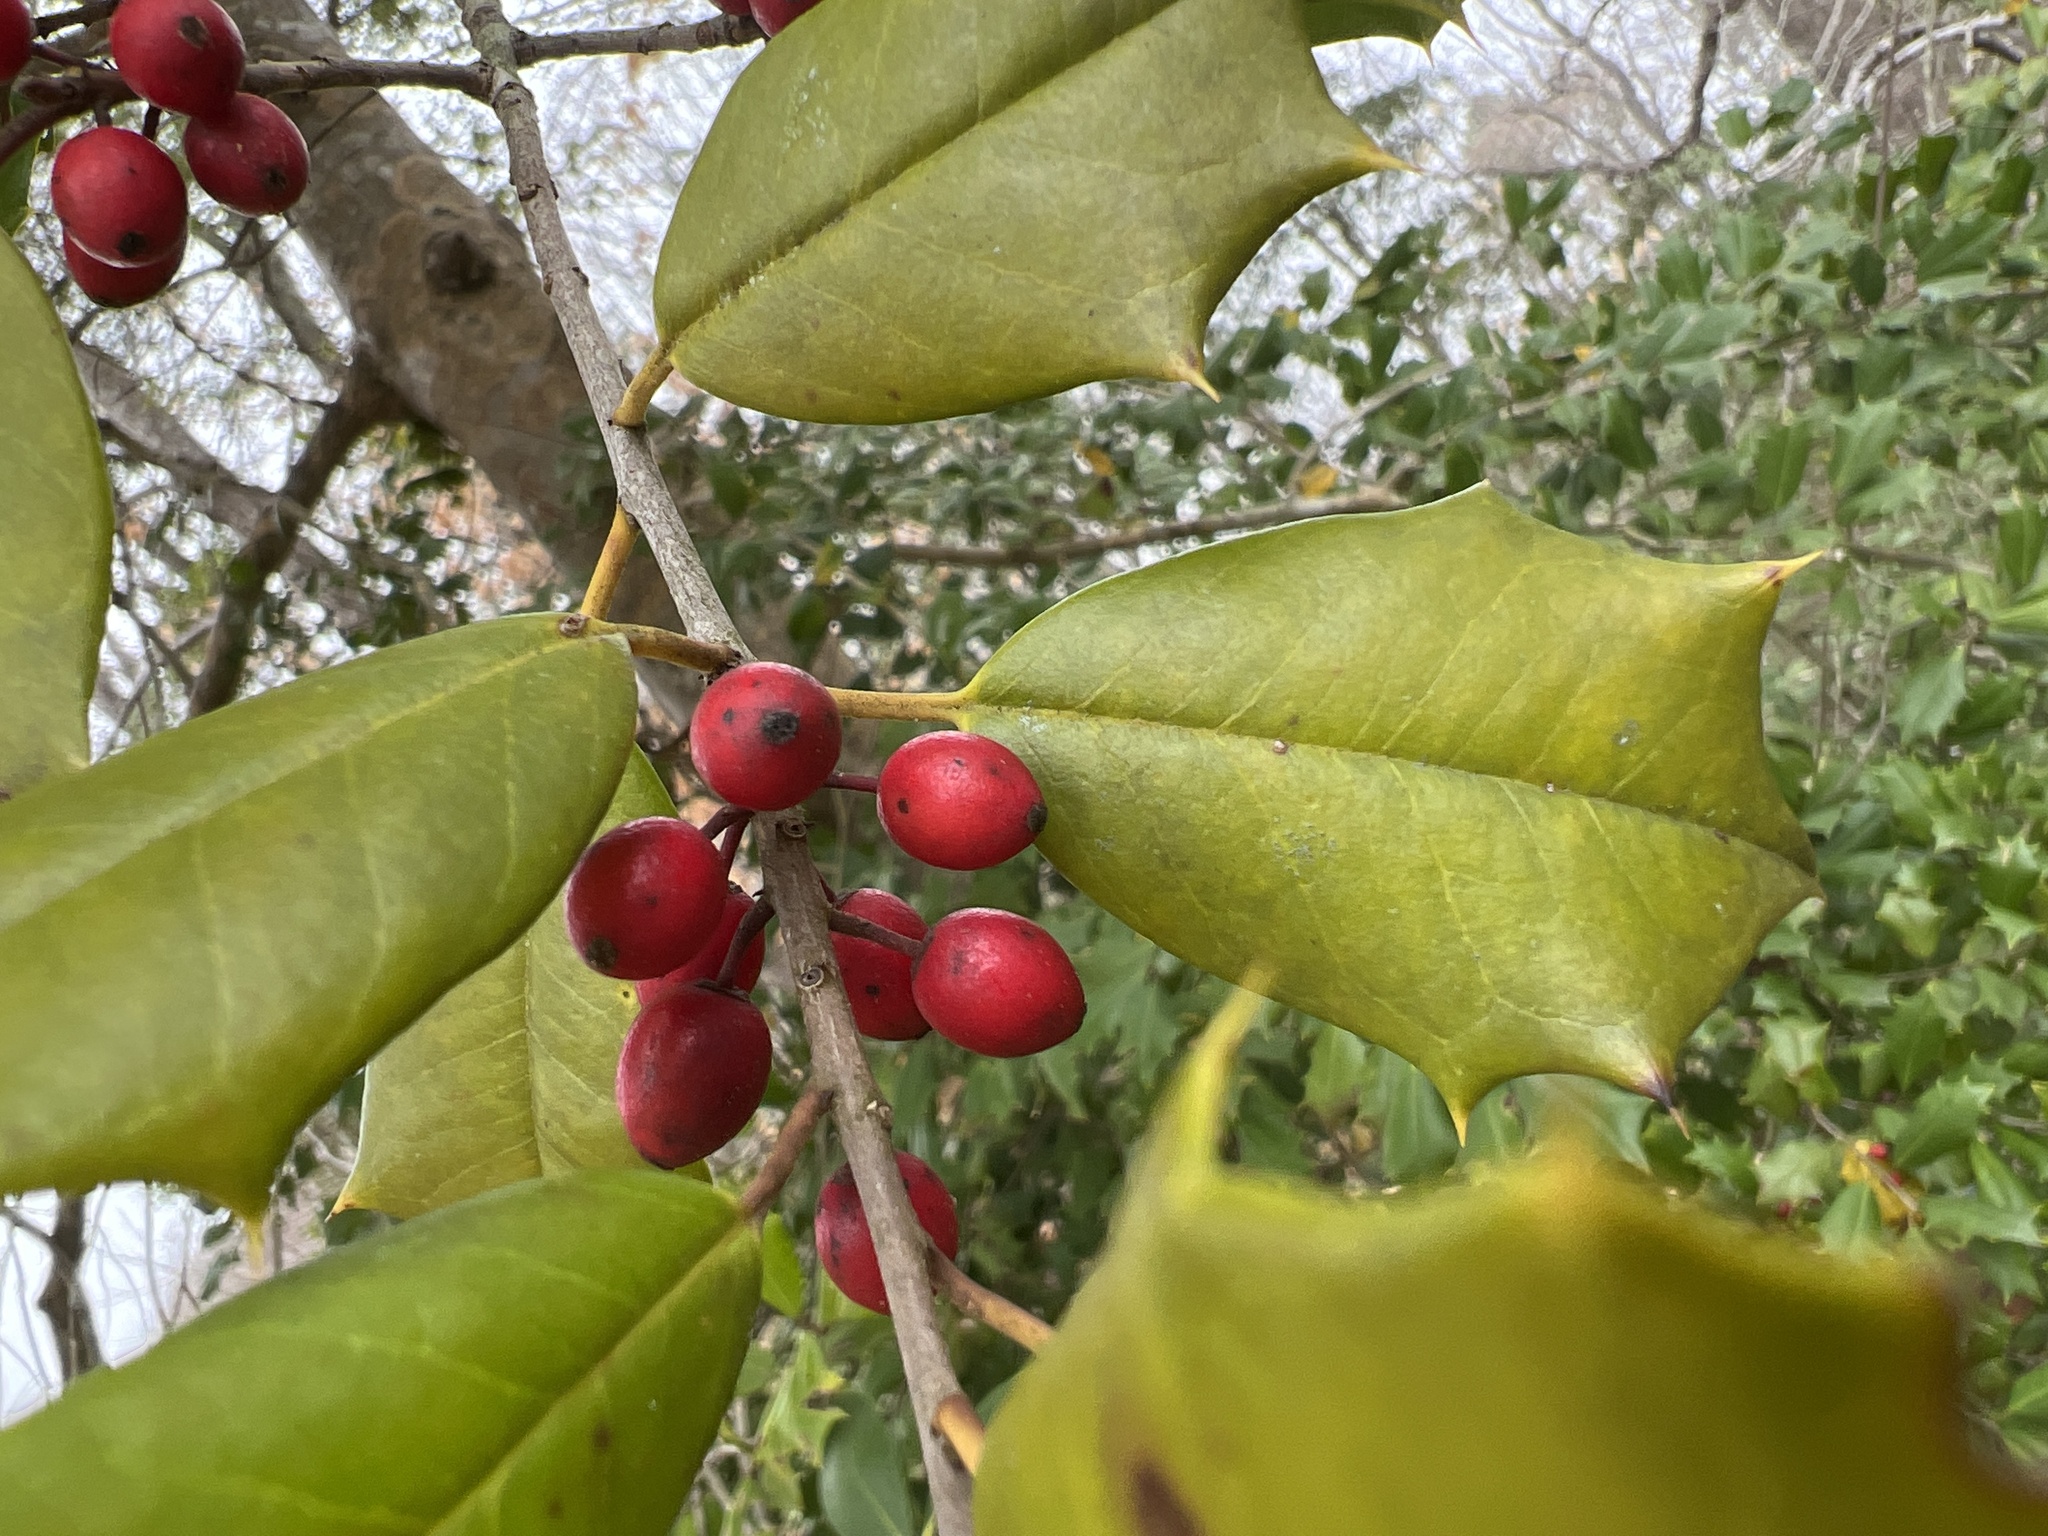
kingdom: Plantae
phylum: Tracheophyta
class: Magnoliopsida
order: Aquifoliales
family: Aquifoliaceae
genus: Ilex
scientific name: Ilex opaca
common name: American holly
